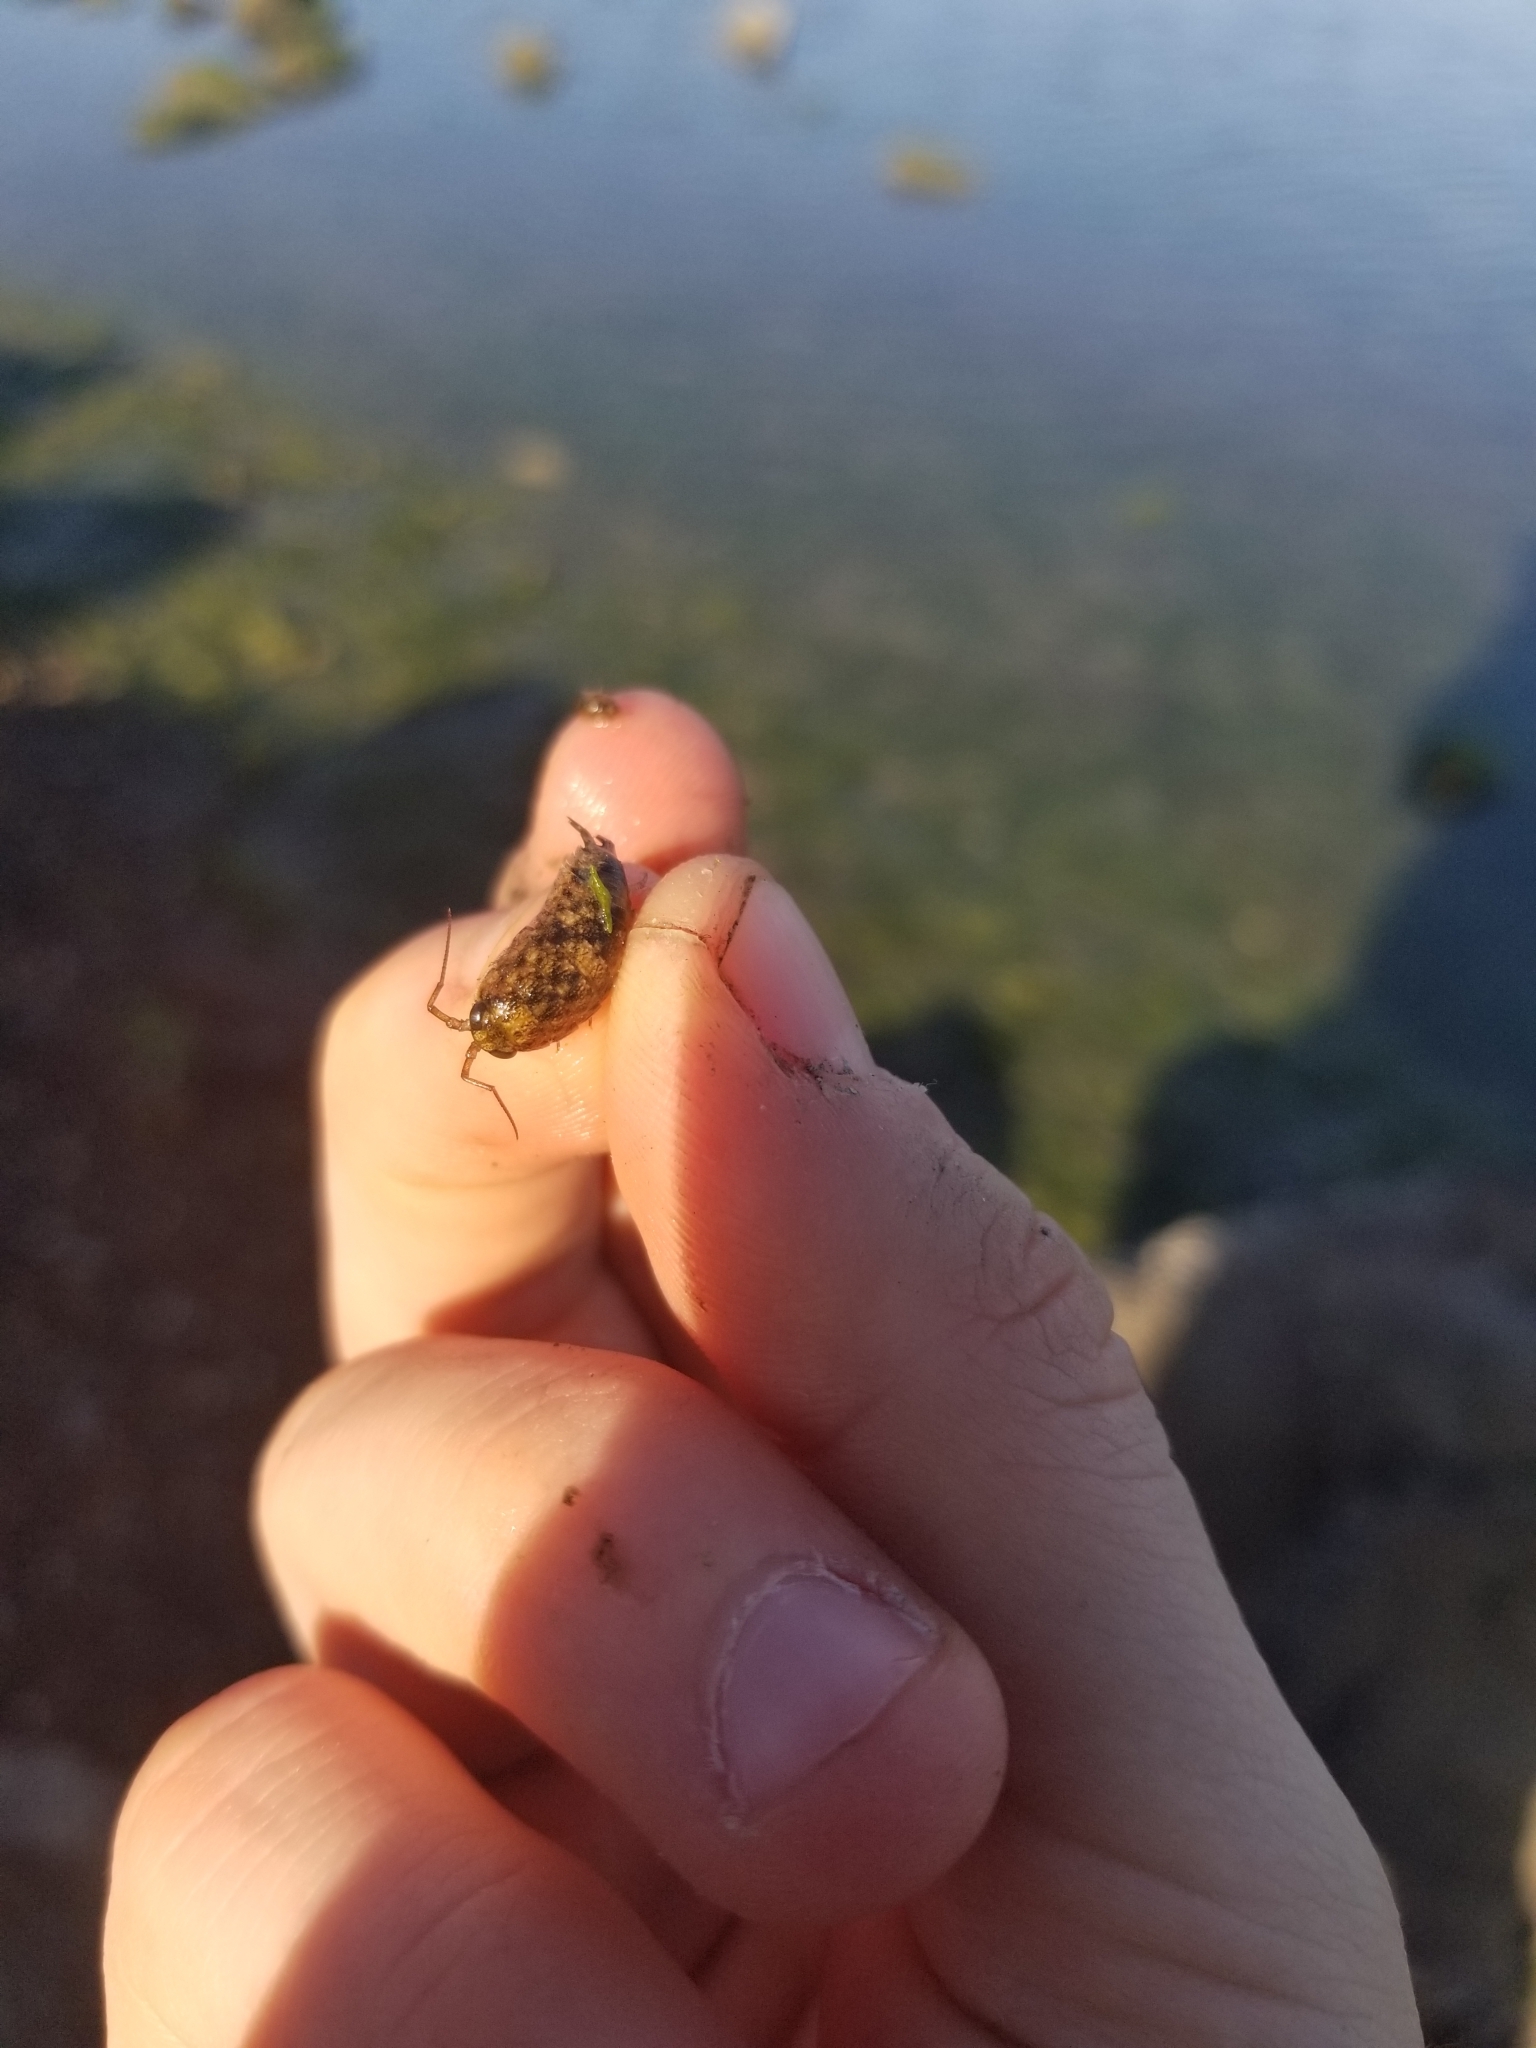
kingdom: Animalia
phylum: Arthropoda
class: Malacostraca
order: Isopoda
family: Ligiidae
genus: Ligia
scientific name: Ligia occidentalis
